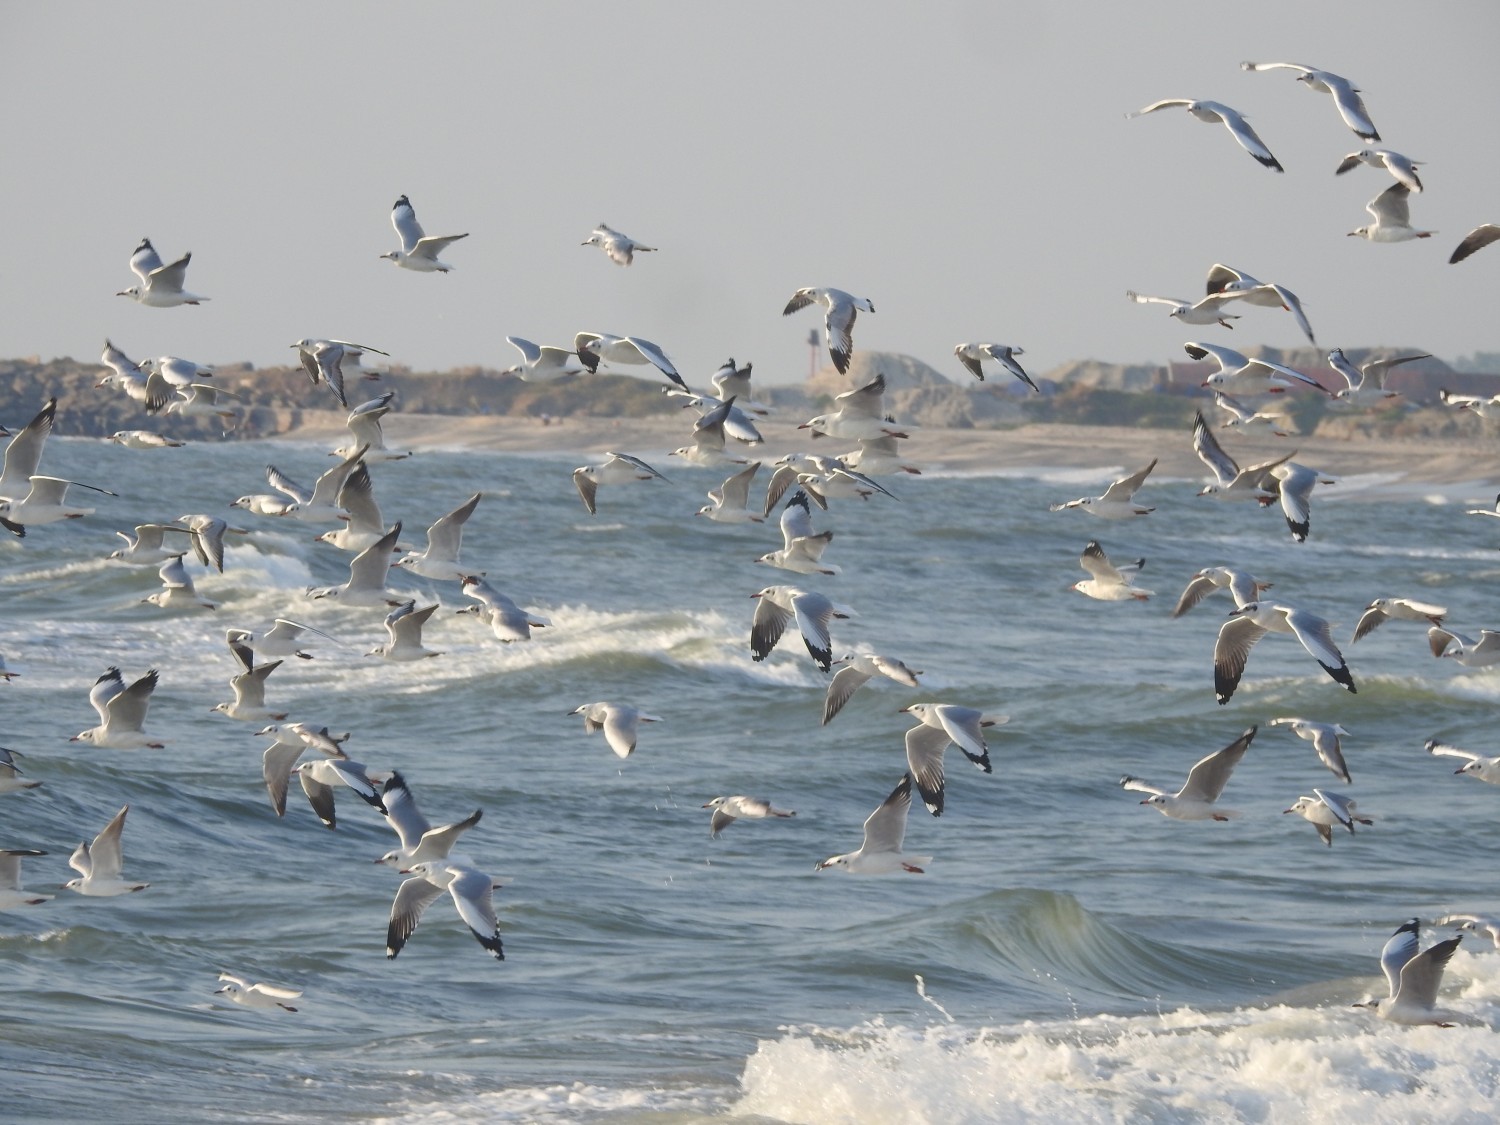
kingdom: Animalia
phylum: Chordata
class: Aves
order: Charadriiformes
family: Laridae
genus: Chroicocephalus
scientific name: Chroicocephalus brunnicephalus
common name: Brown-headed gull
